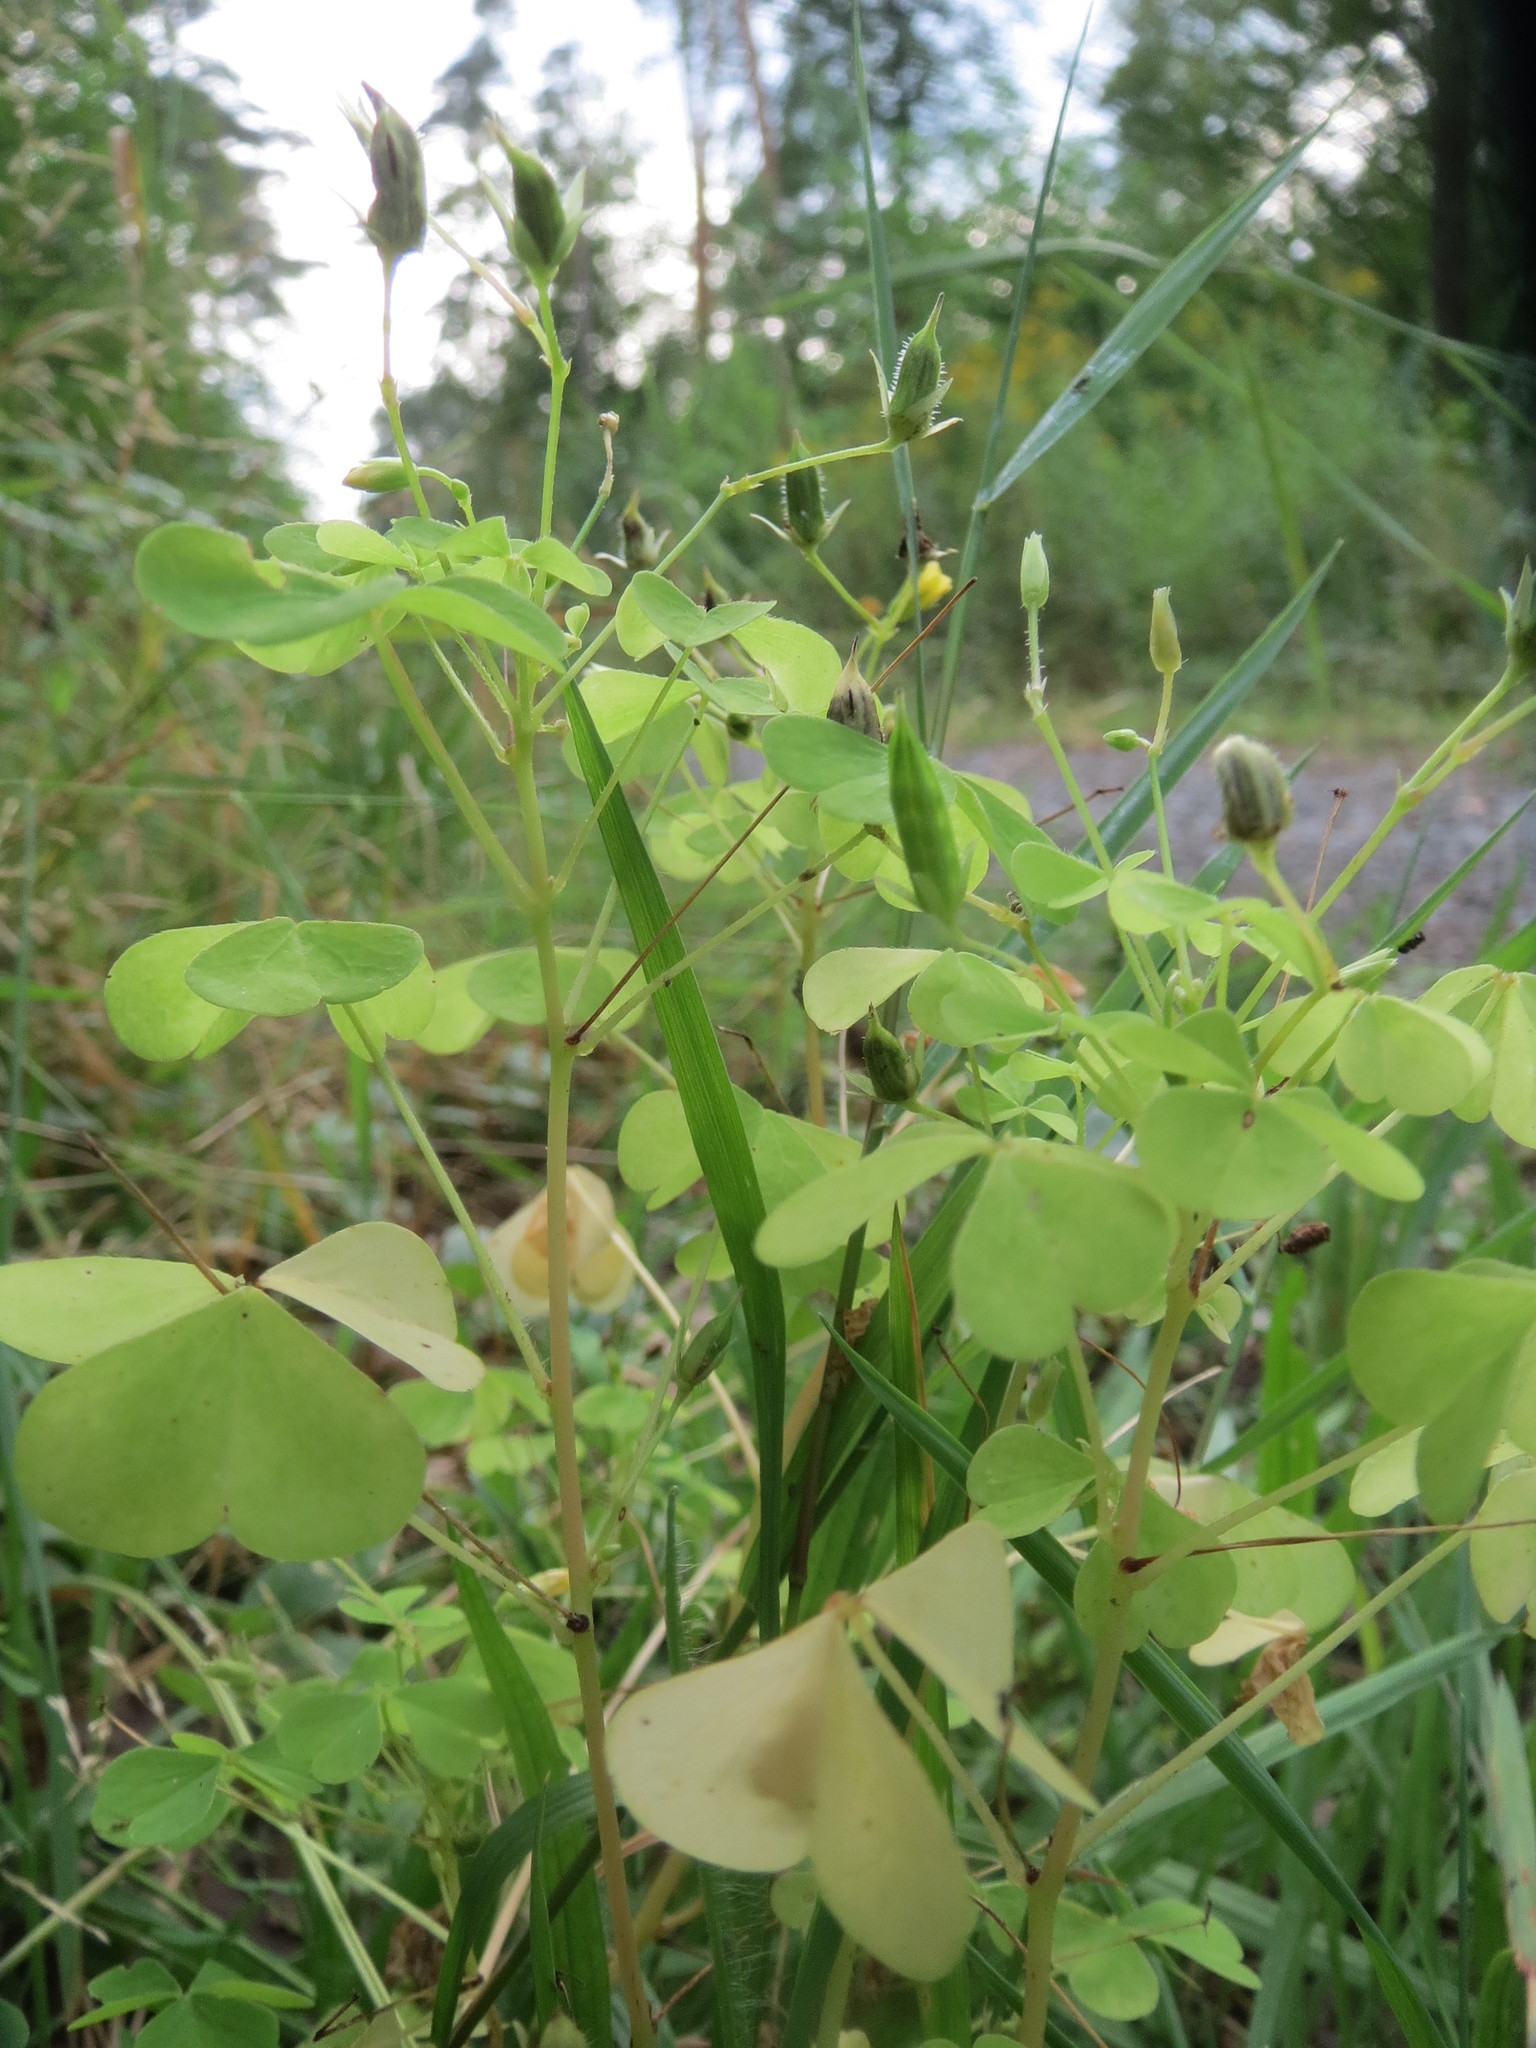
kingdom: Plantae
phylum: Tracheophyta
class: Magnoliopsida
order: Oxalidales
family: Oxalidaceae
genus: Oxalis
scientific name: Oxalis stricta
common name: Upright yellow-sorrel
